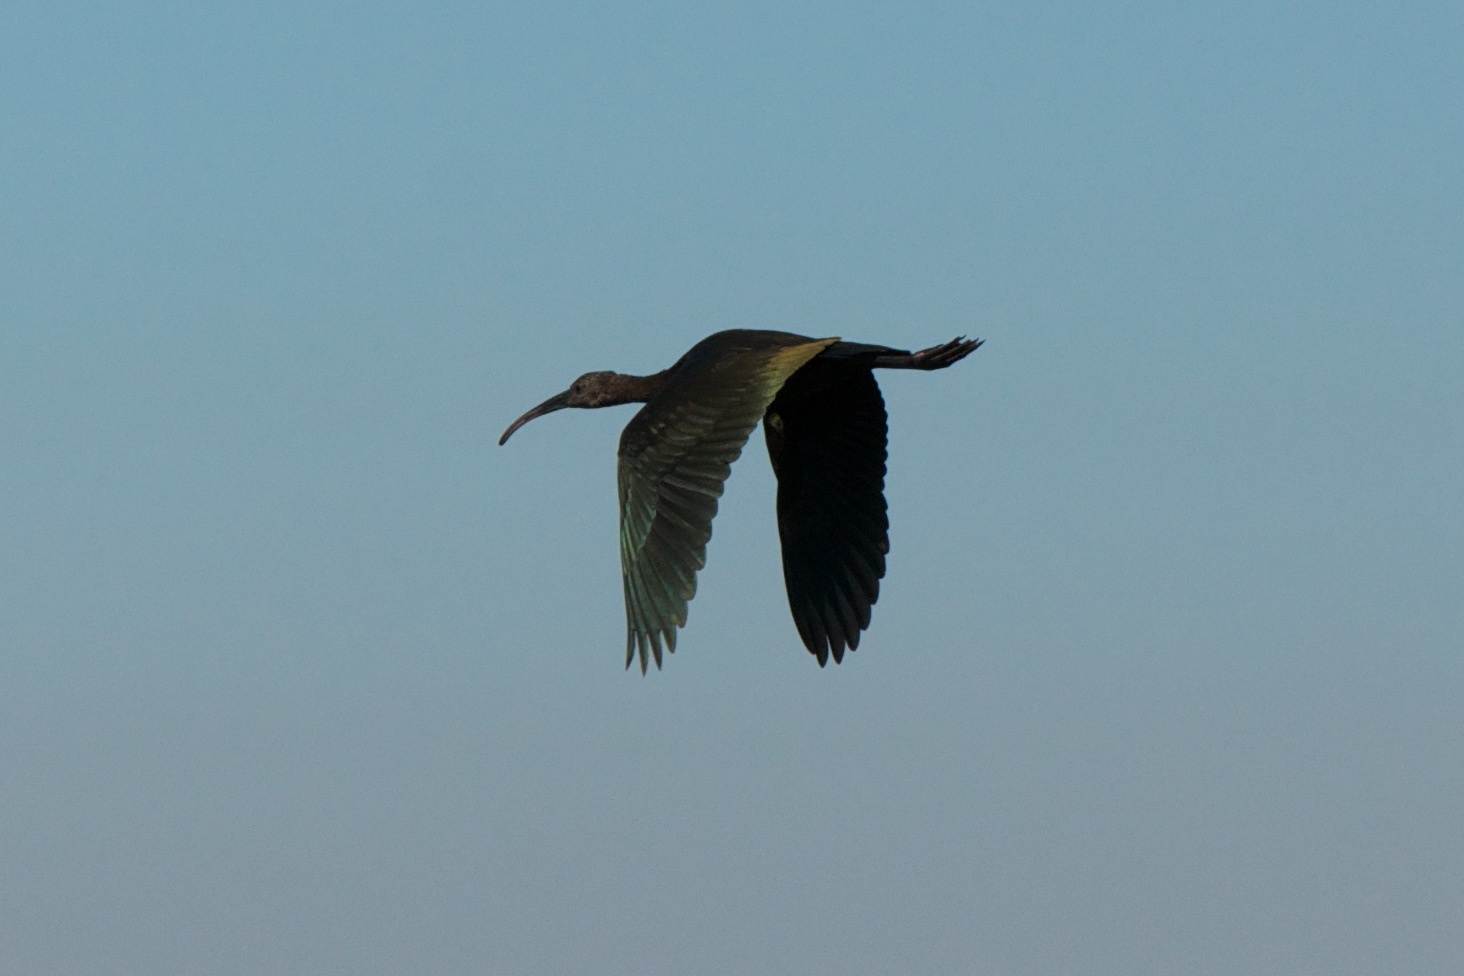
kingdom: Animalia
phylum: Chordata
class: Aves
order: Pelecaniformes
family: Threskiornithidae
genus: Plegadis
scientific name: Plegadis chihi
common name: White-faced ibis
